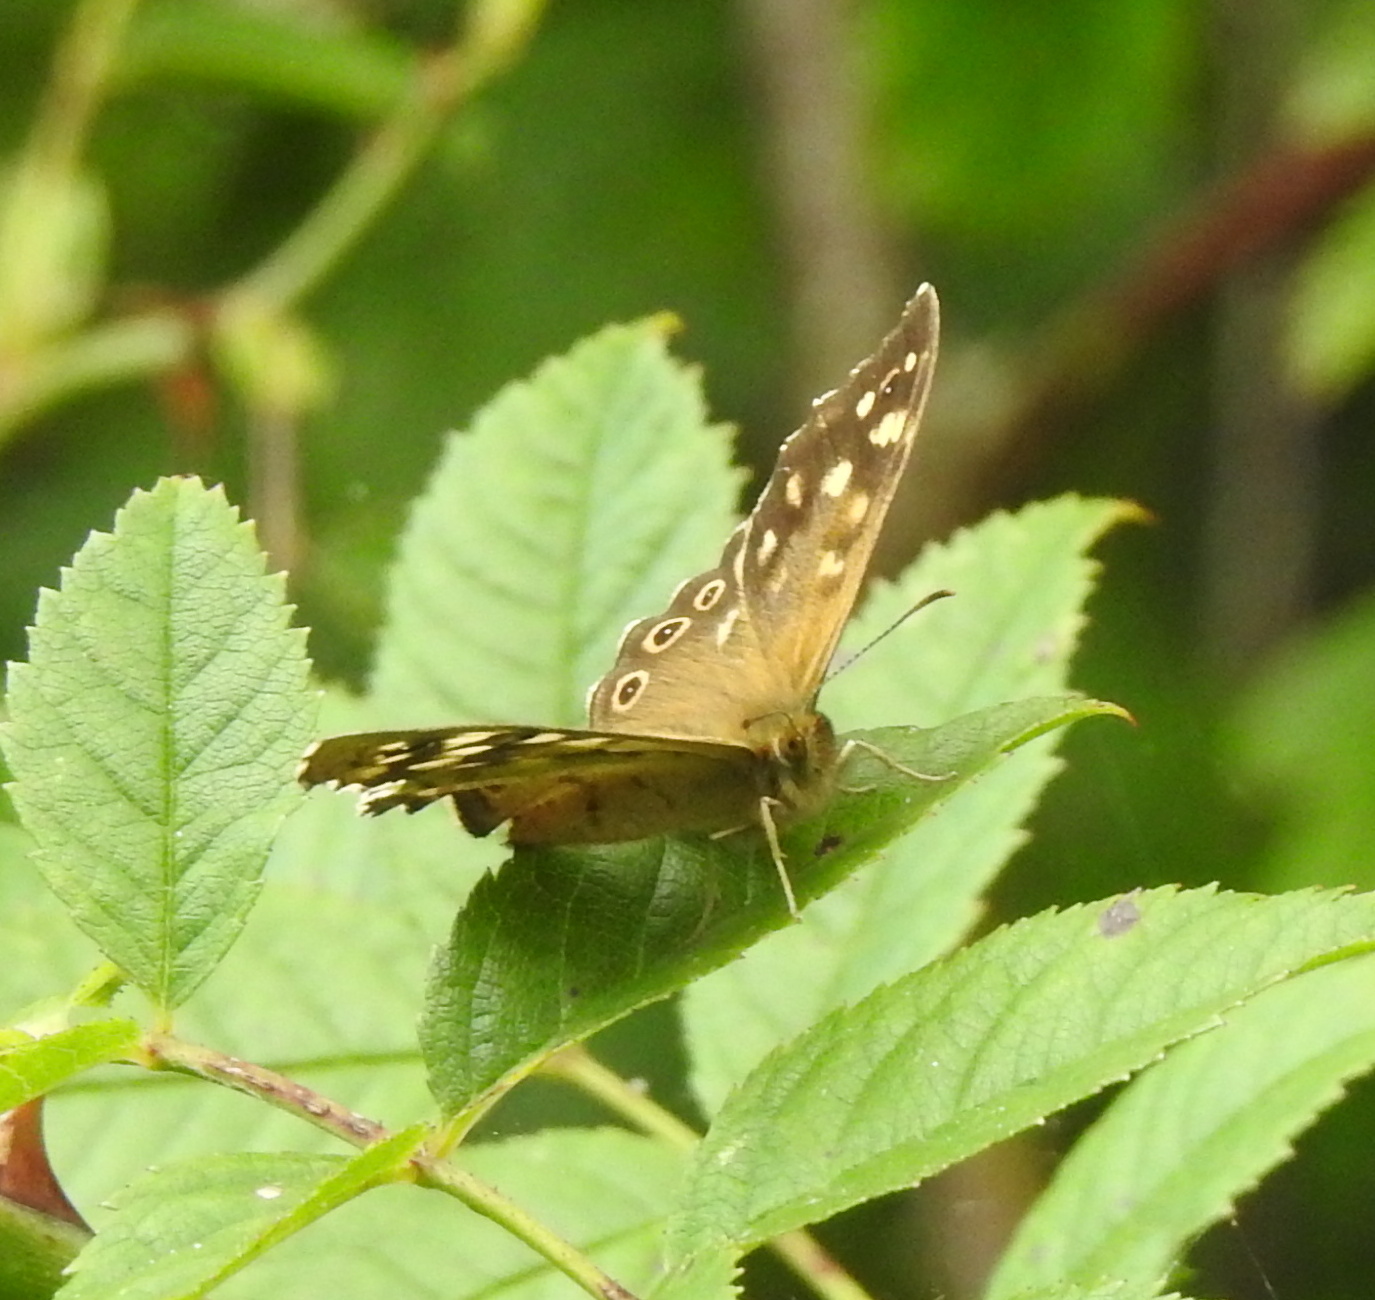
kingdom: Animalia
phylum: Arthropoda
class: Insecta
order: Lepidoptera
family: Nymphalidae
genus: Pararge
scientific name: Pararge aegeria
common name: Speckled wood
